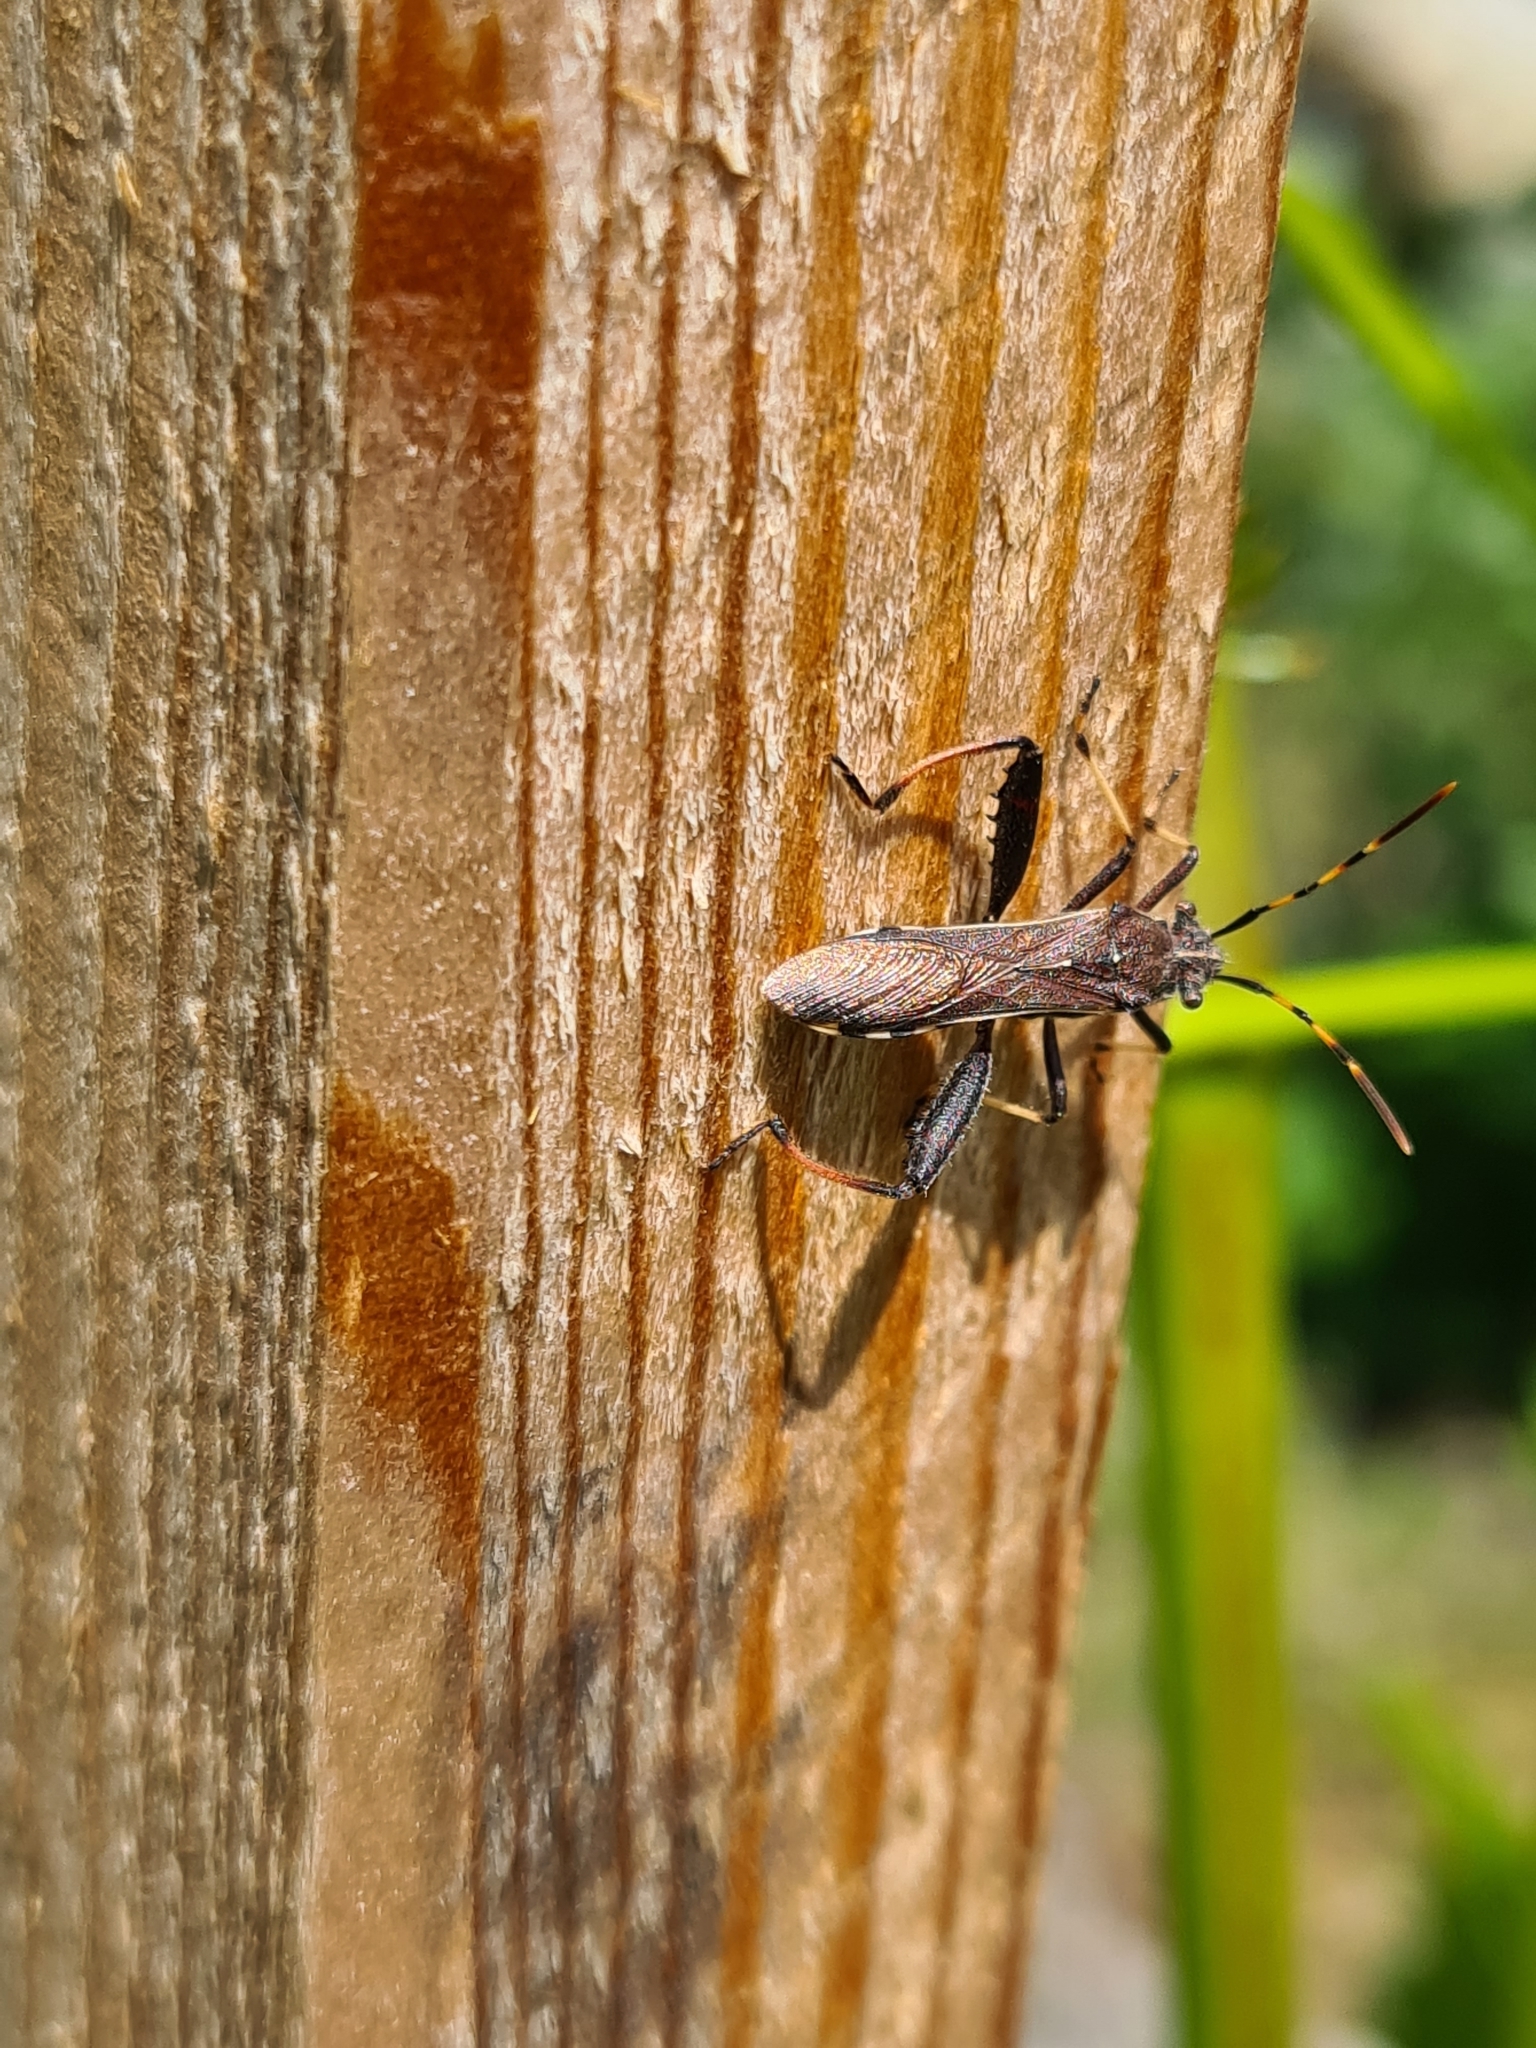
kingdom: Animalia
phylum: Arthropoda
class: Insecta
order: Hemiptera
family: Alydidae
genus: Camptopus
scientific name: Camptopus lateralis
